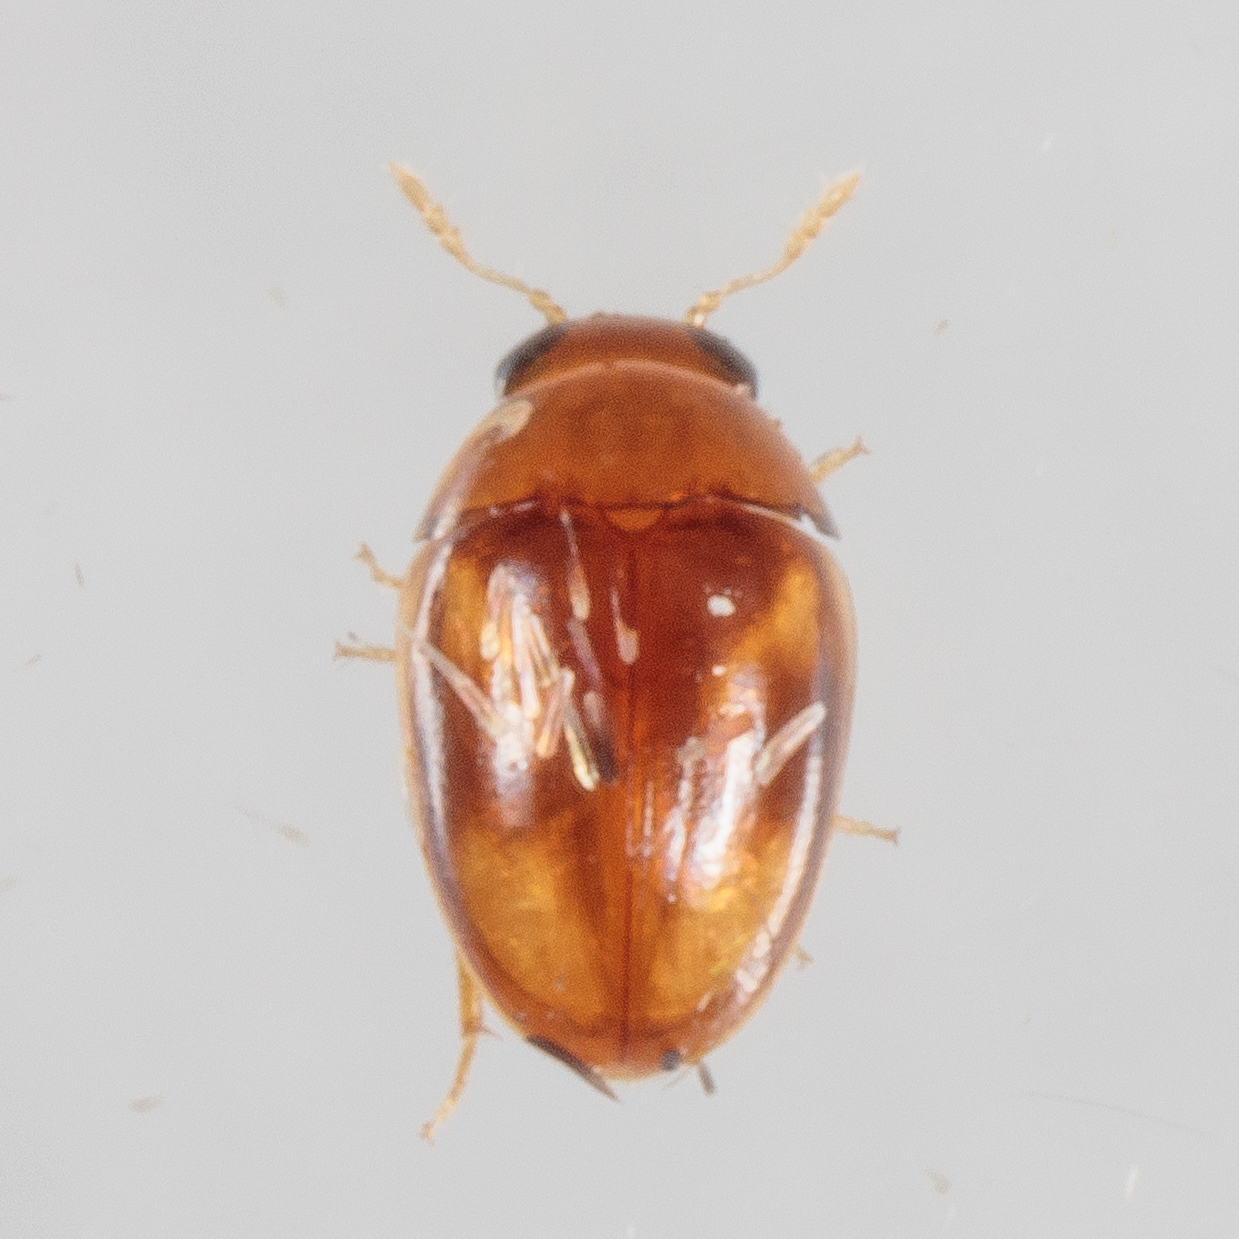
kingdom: Animalia
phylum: Arthropoda
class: Insecta
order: Coleoptera
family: Phalacridae
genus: Neolitochrus
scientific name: Neolitochrus
